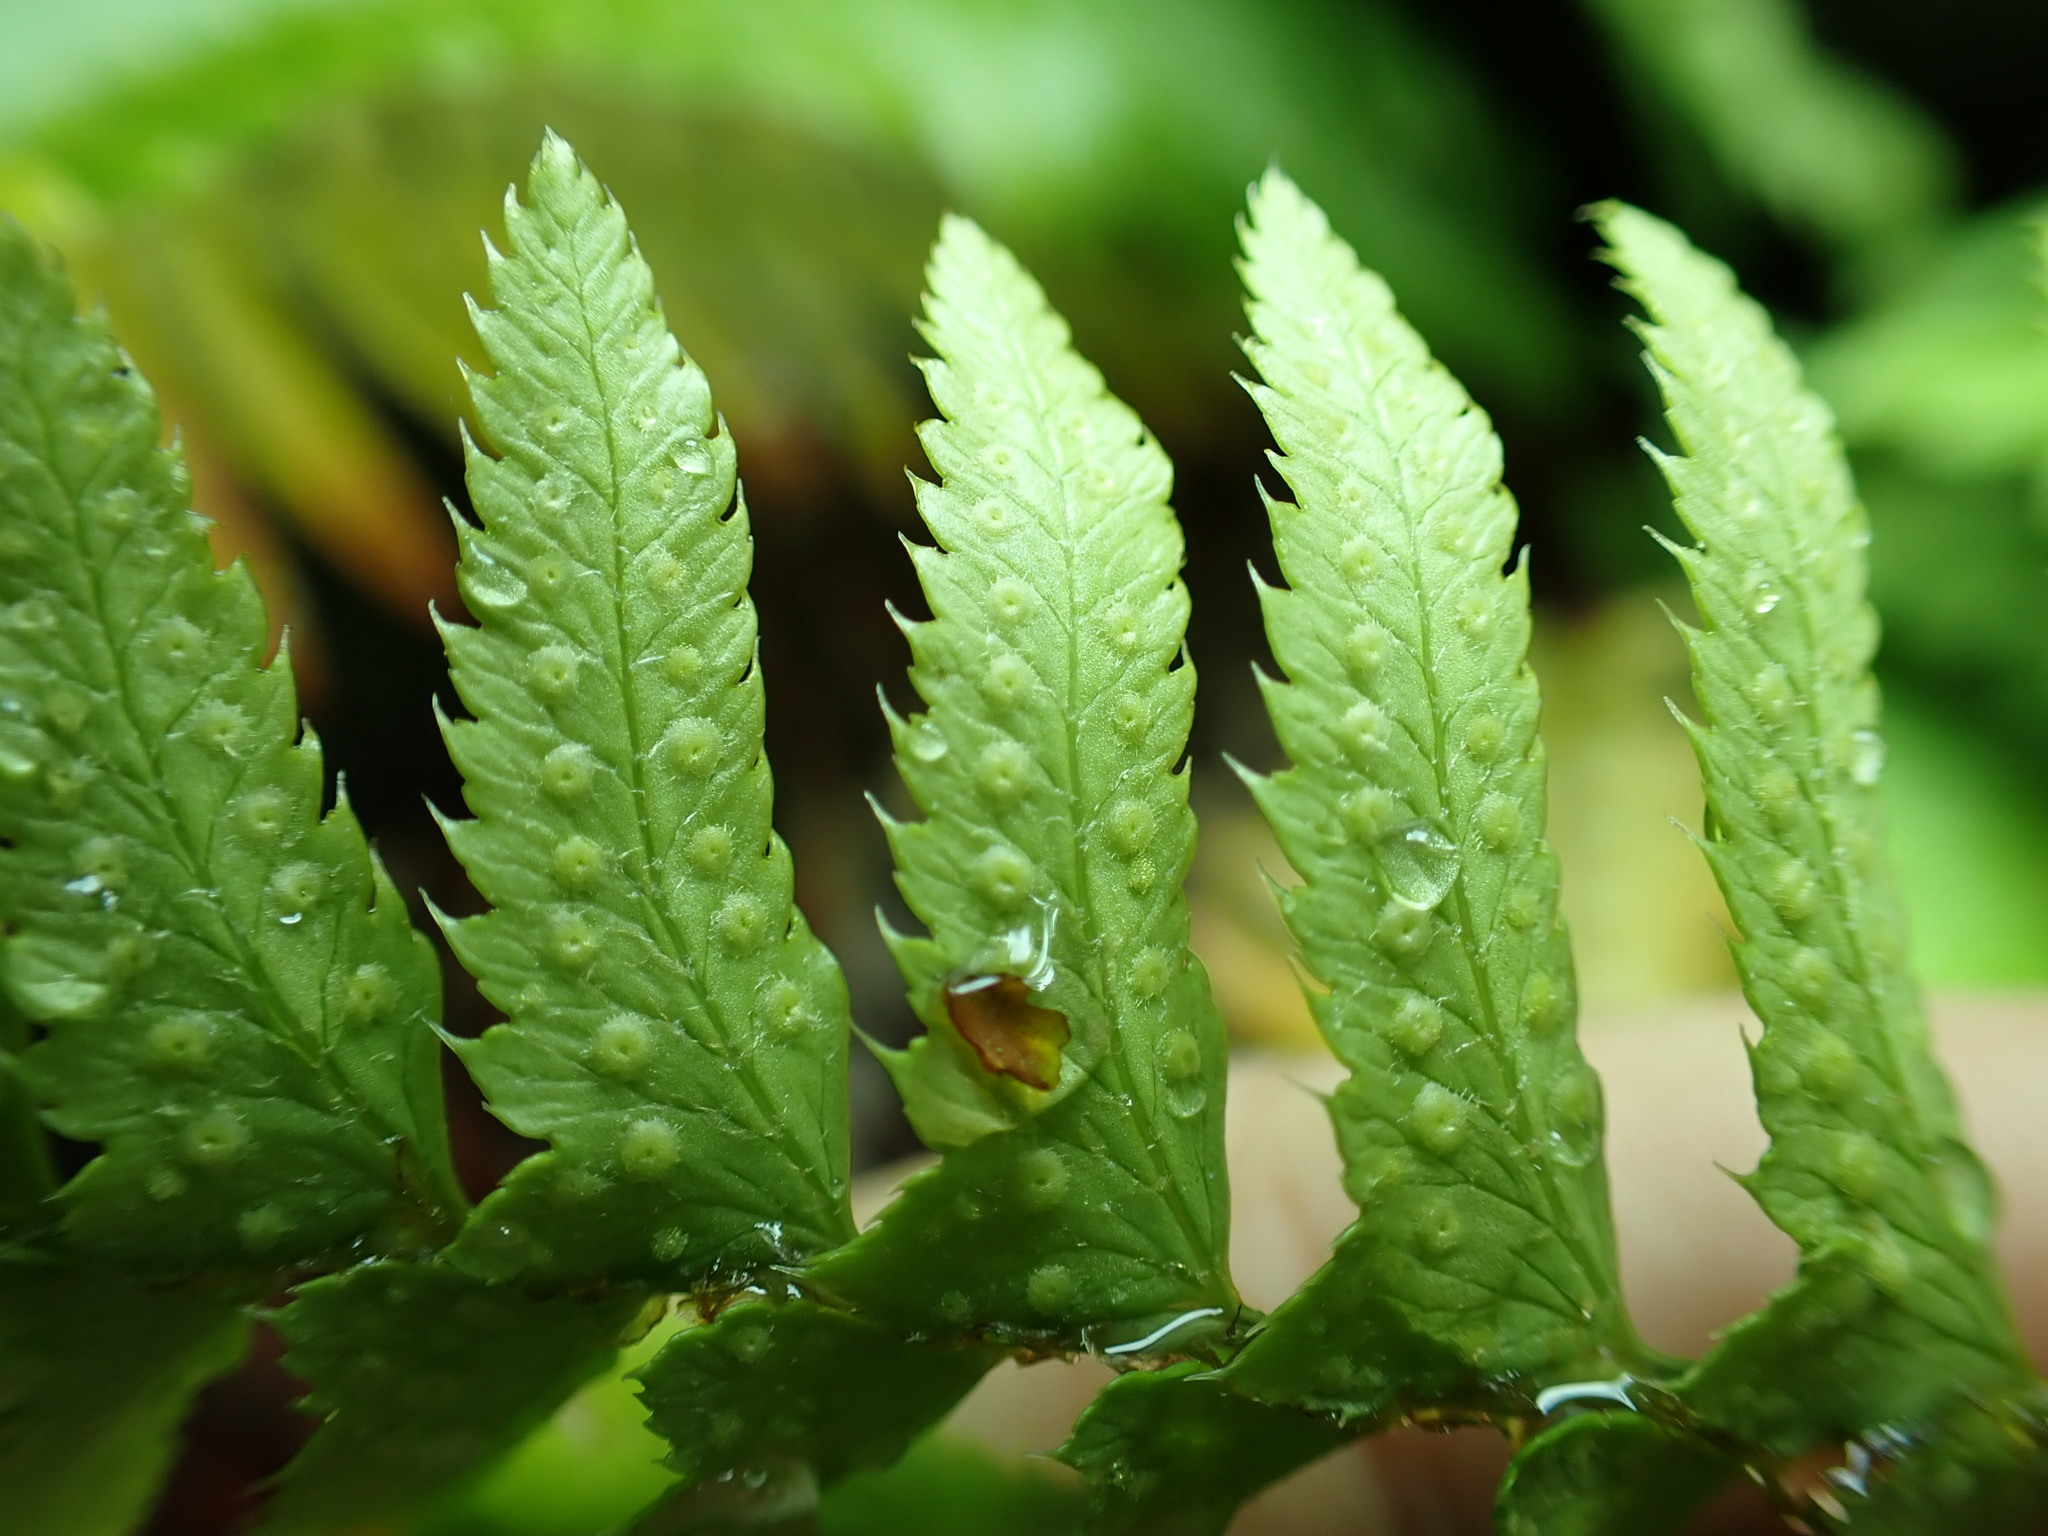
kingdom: Plantae
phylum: Tracheophyta
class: Polypodiopsida
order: Polypodiales
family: Dryopteridaceae
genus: Polystichum
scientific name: Polystichum munitum
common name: Western sword-fern
